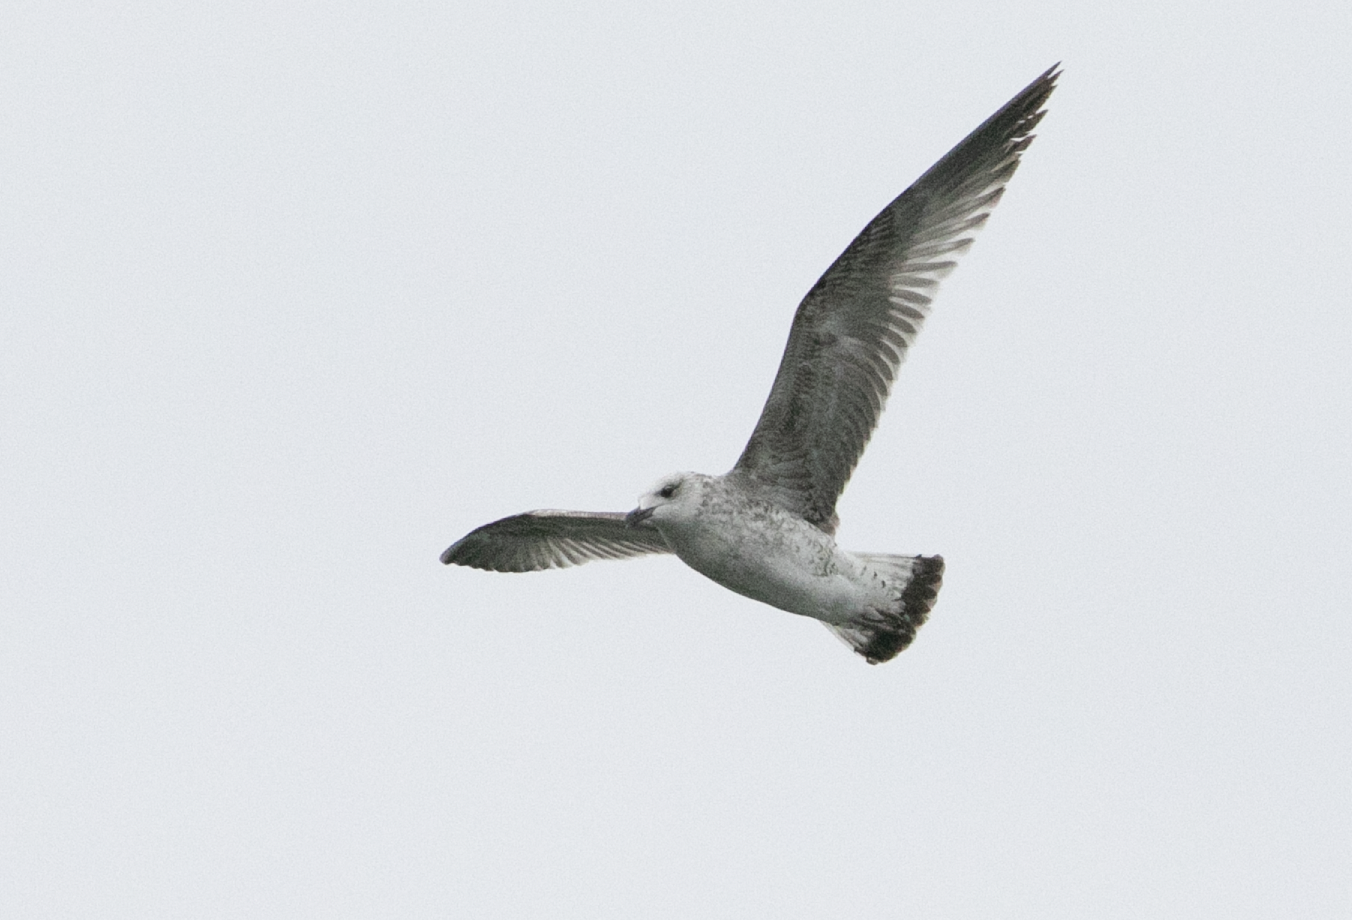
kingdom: Animalia
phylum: Chordata
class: Aves
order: Charadriiformes
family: Laridae
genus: Larus
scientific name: Larus canus
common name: Mew gull
